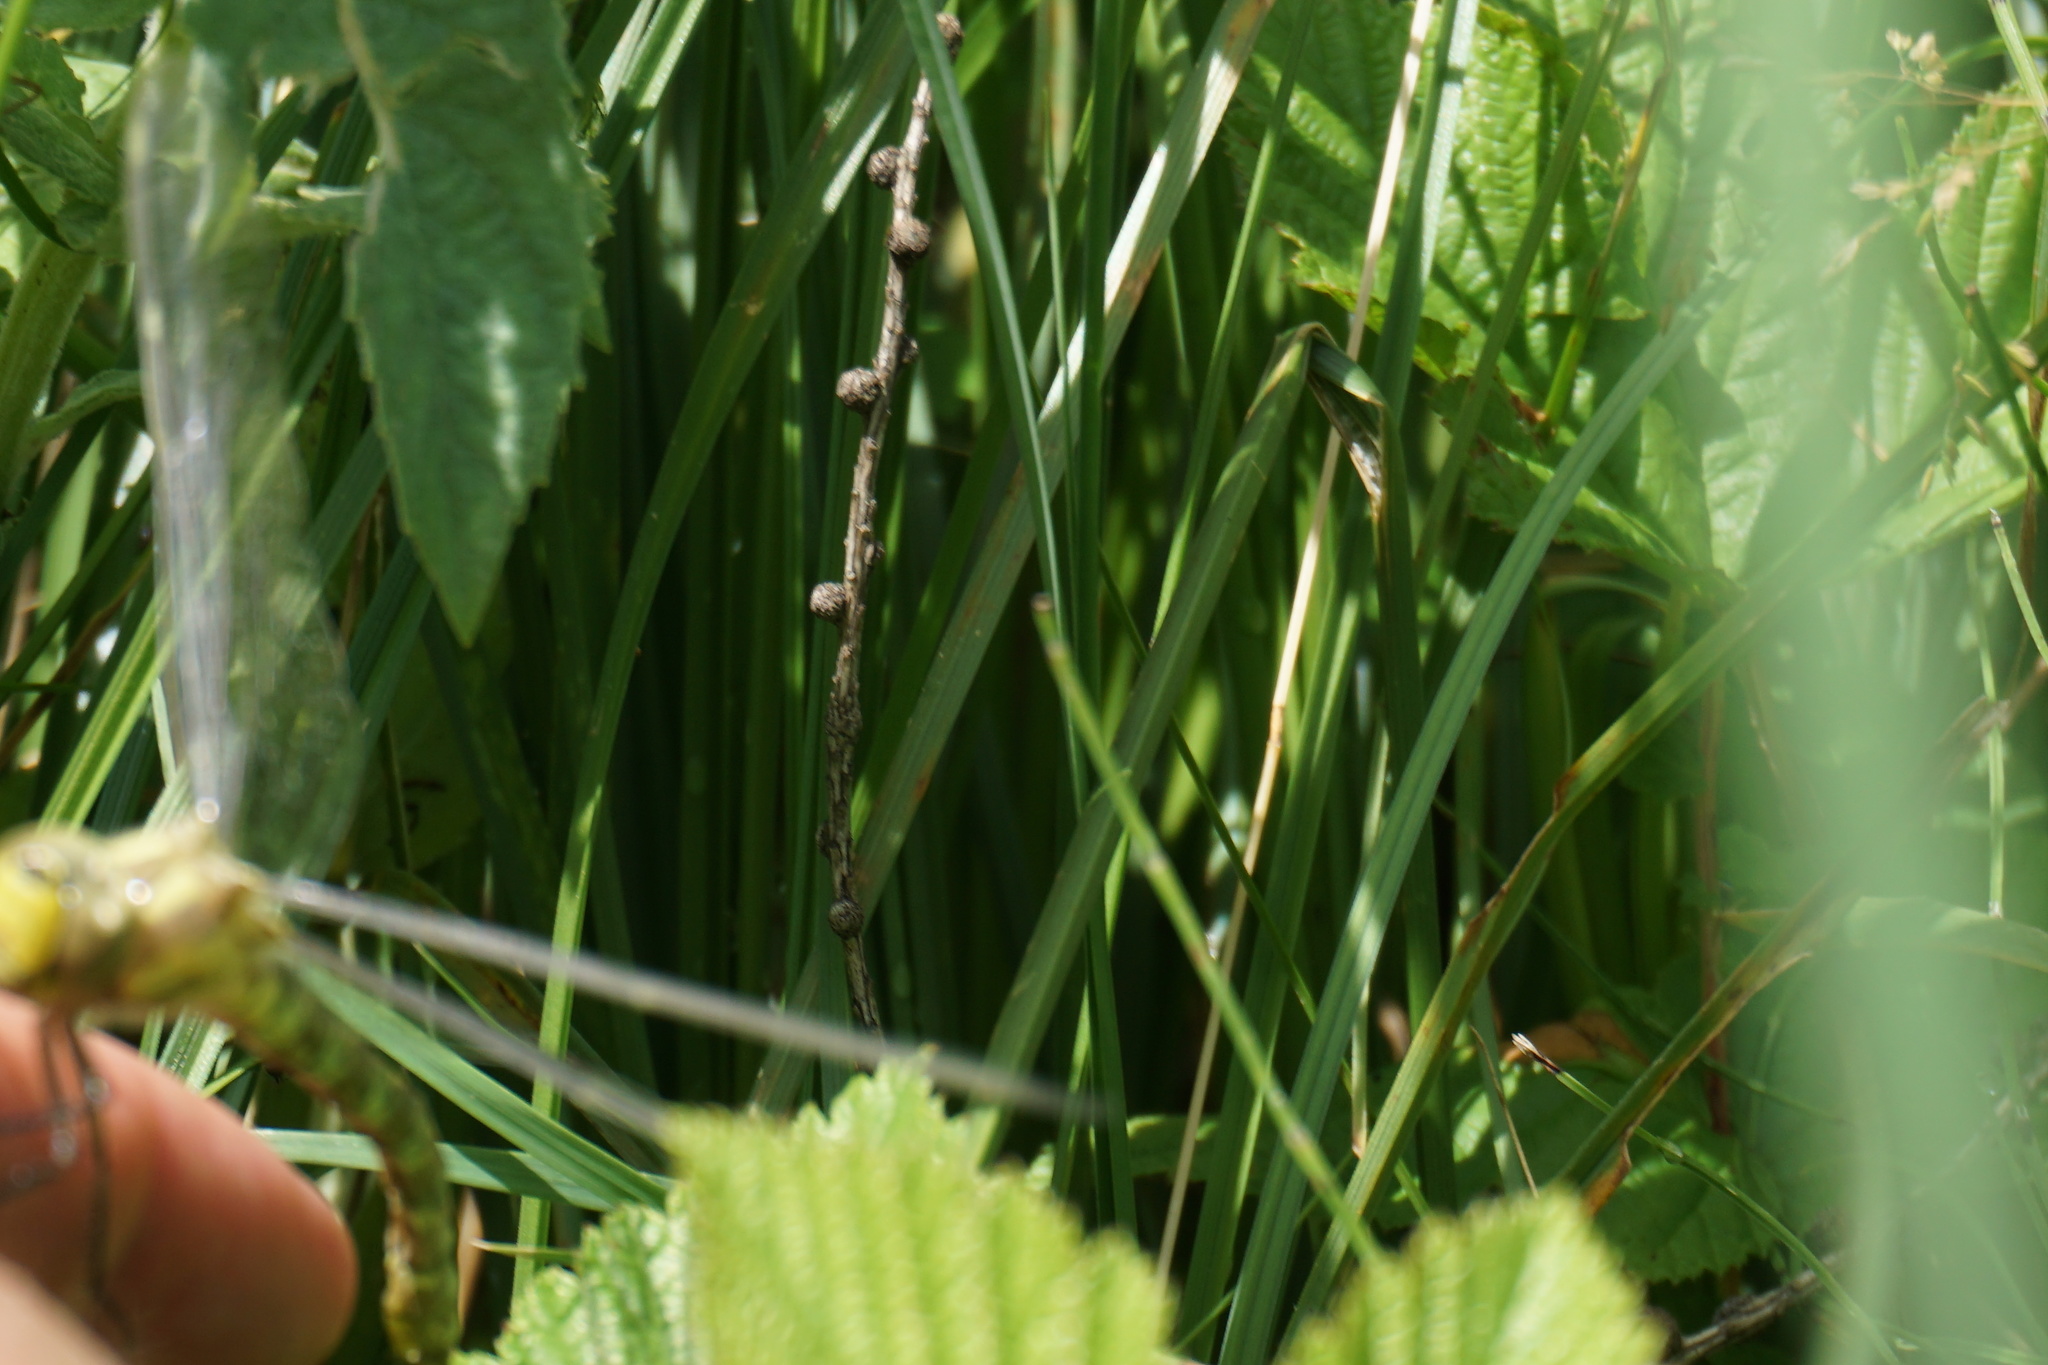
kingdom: Animalia
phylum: Arthropoda
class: Insecta
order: Odonata
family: Aeshnidae
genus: Aeshna
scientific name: Aeshna cyanea
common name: Southern hawker
